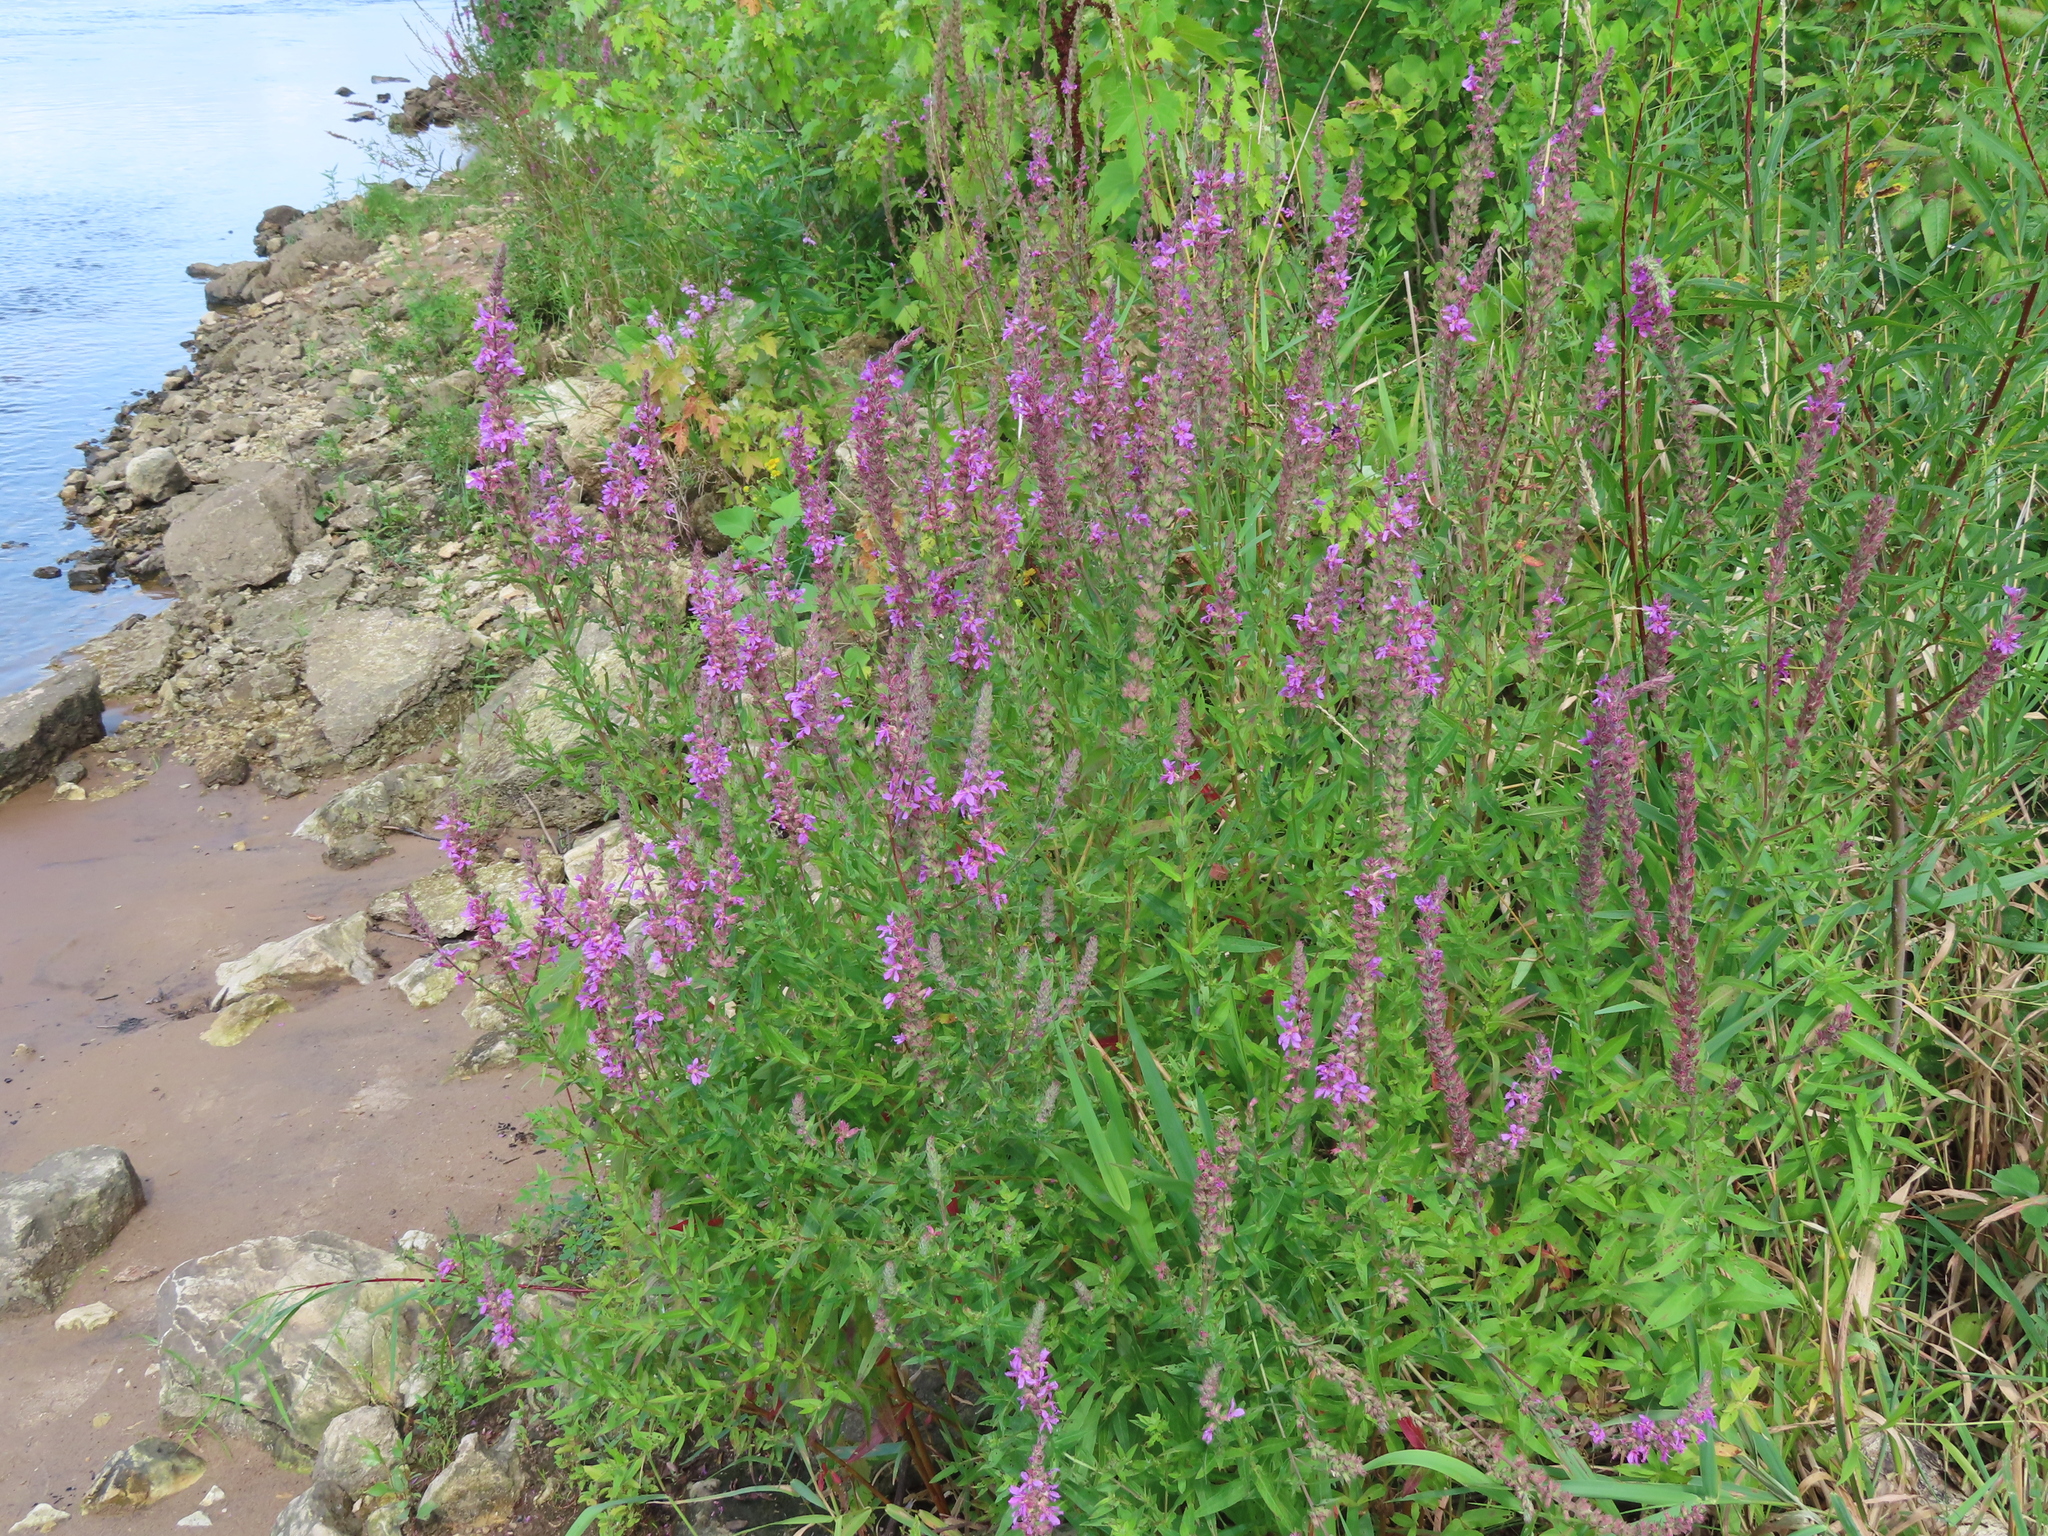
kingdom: Plantae
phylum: Tracheophyta
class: Magnoliopsida
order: Myrtales
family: Lythraceae
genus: Lythrum
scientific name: Lythrum salicaria
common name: Purple loosestrife
